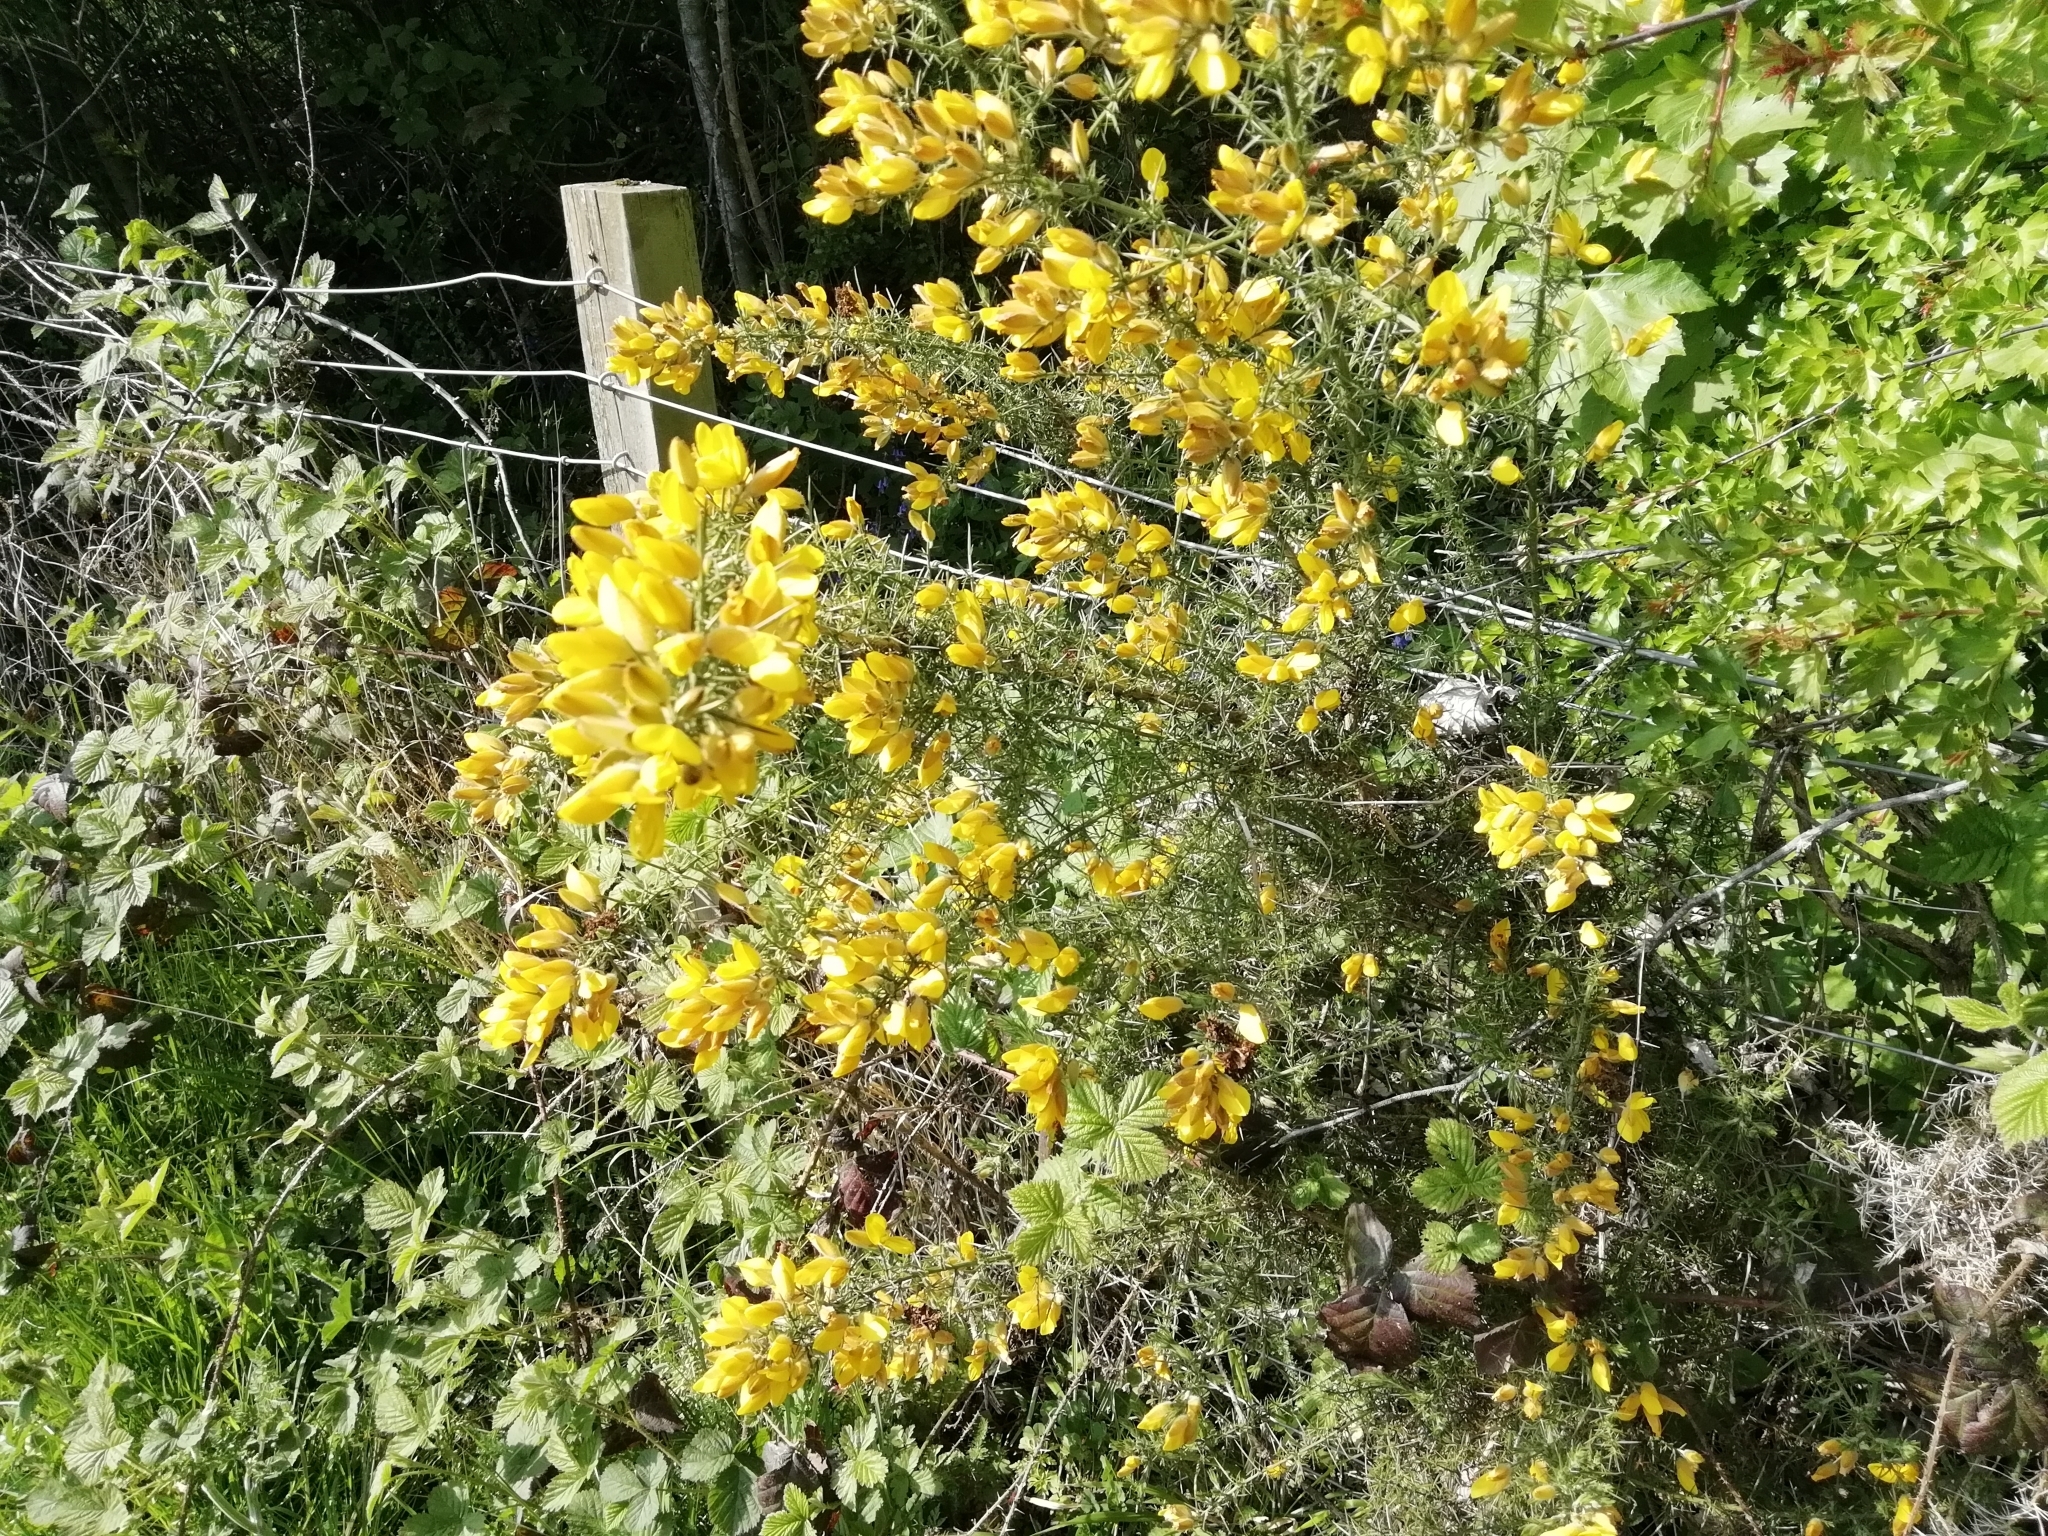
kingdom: Plantae
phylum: Tracheophyta
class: Magnoliopsida
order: Fabales
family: Fabaceae
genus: Ulex
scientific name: Ulex europaeus
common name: Common gorse
